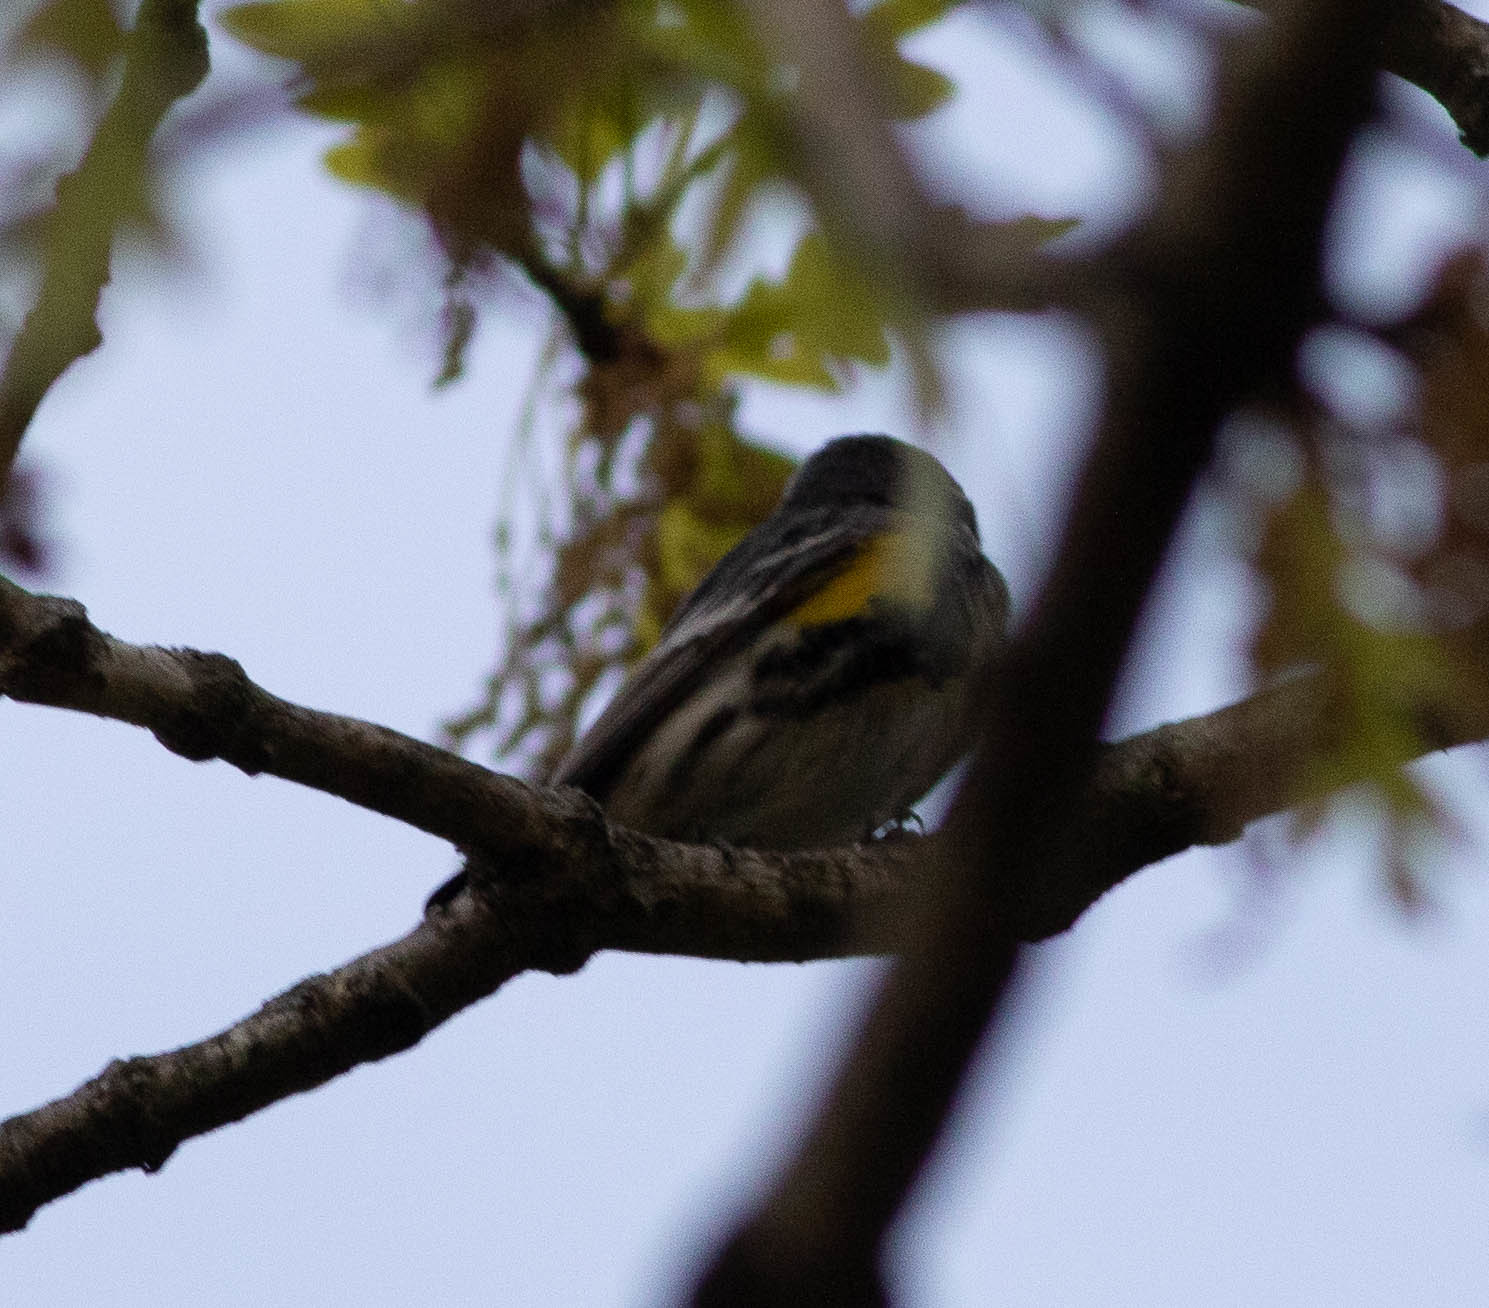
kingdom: Animalia
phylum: Chordata
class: Aves
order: Passeriformes
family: Parulidae
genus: Setophaga
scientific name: Setophaga coronata
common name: Myrtle warbler
